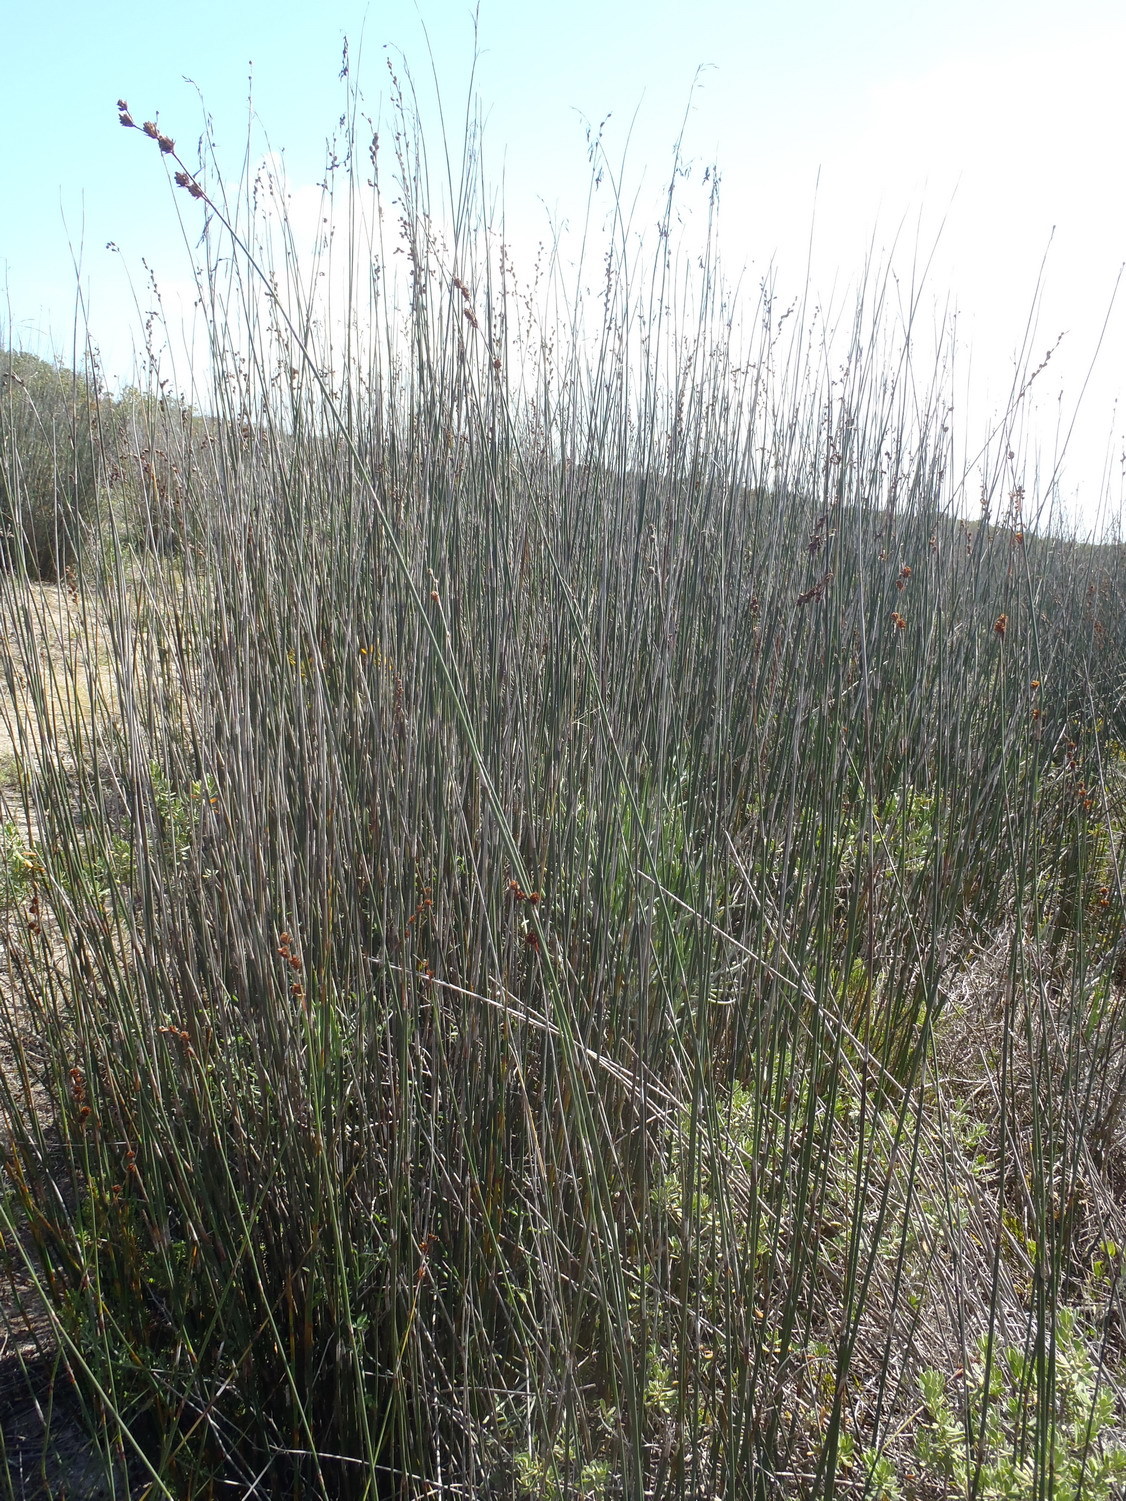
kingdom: Plantae
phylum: Tracheophyta
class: Liliopsida
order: Poales
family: Restionaceae
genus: Thamnochortus
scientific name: Thamnochortus spicigerus
